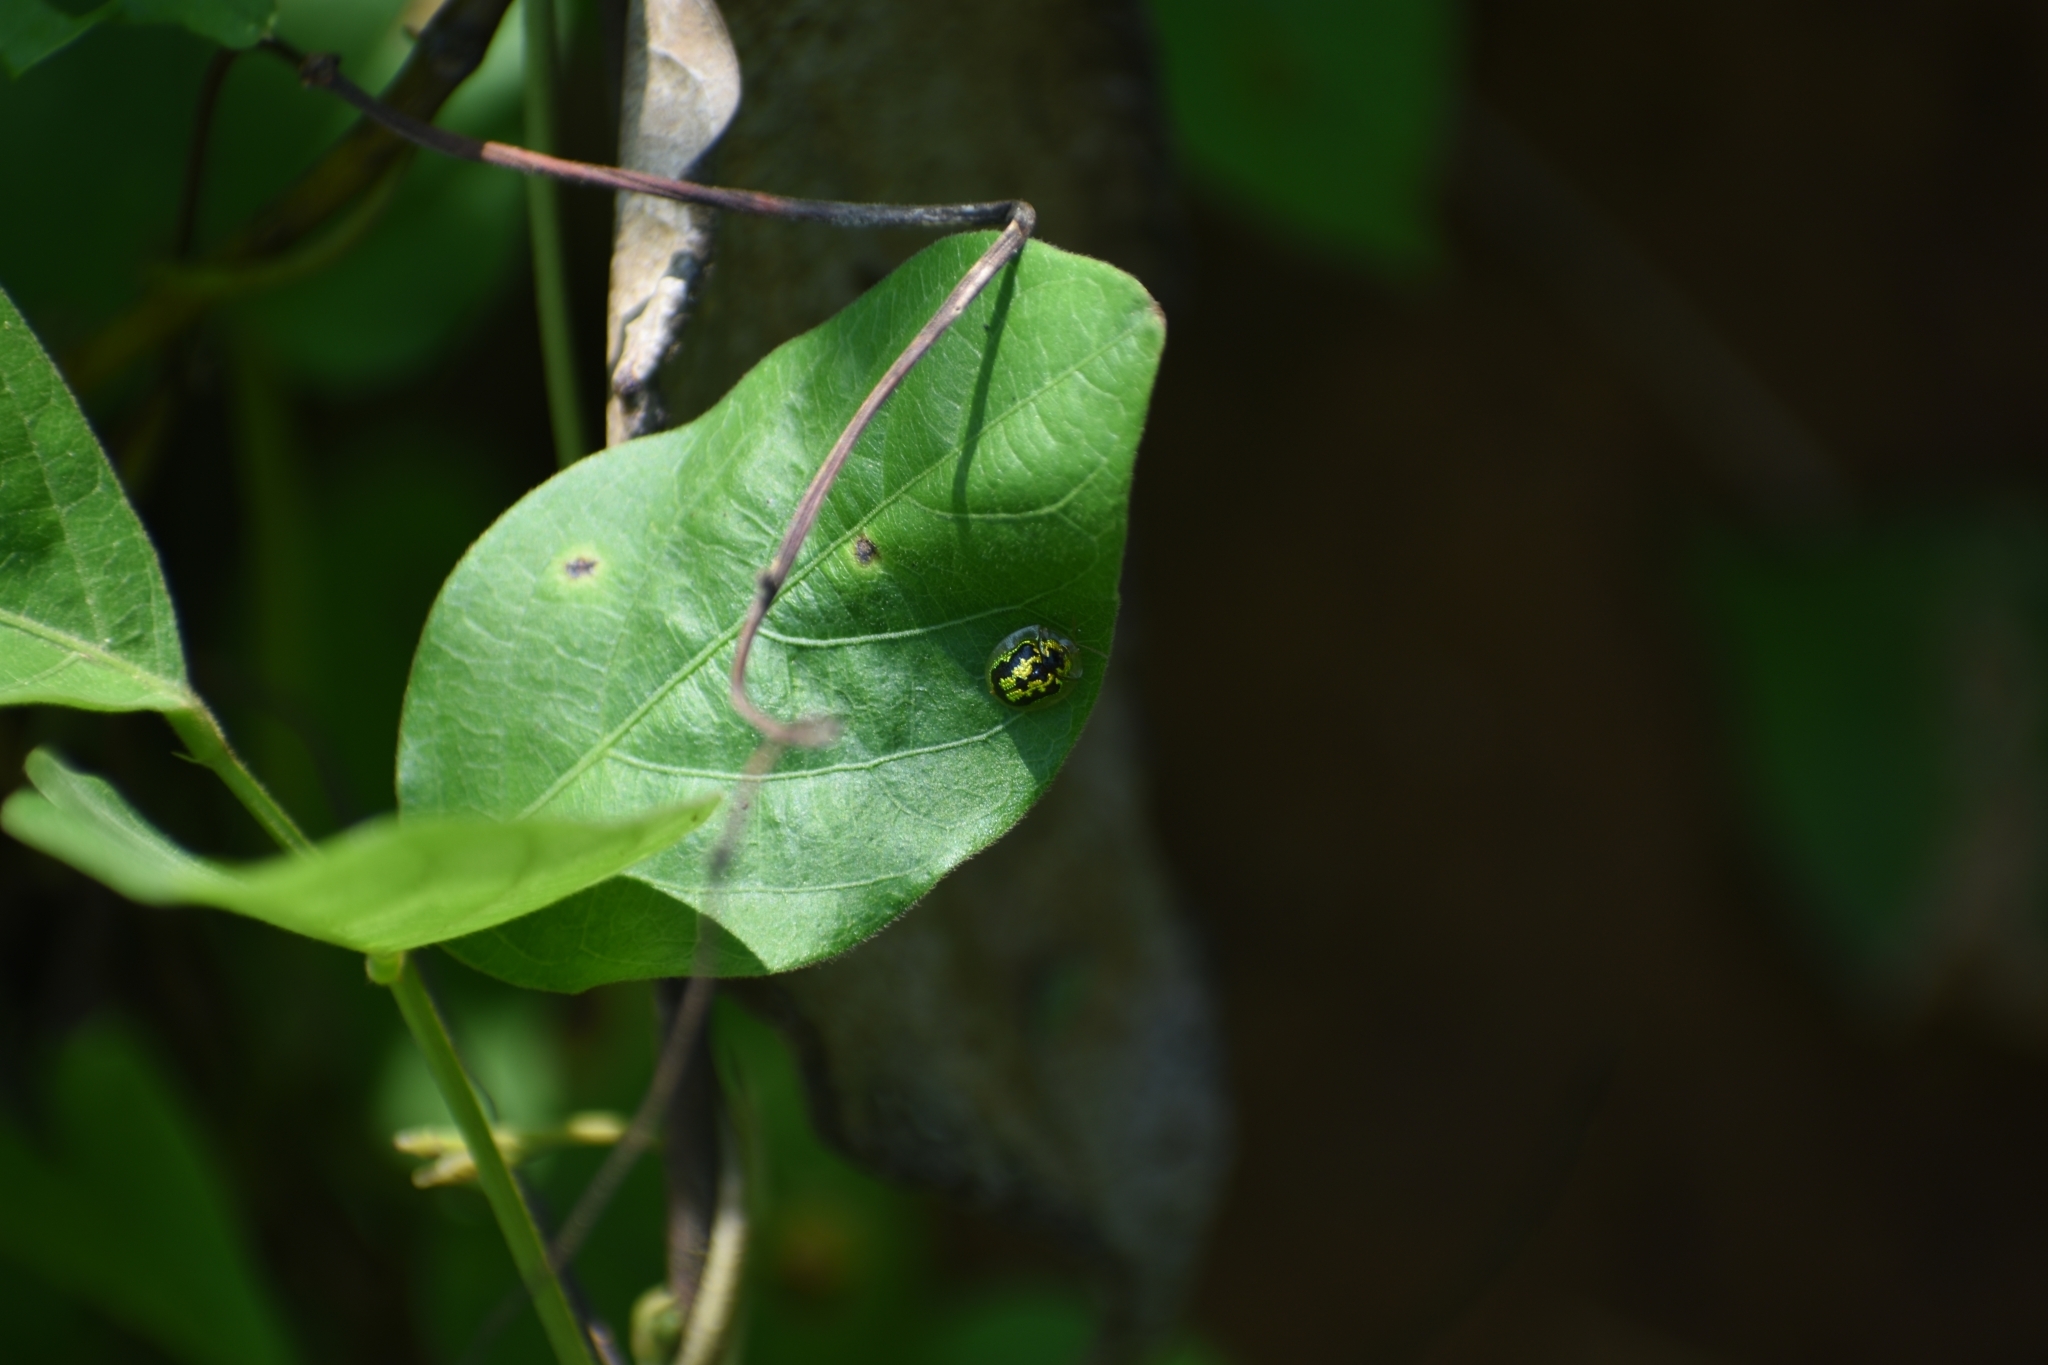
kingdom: Animalia
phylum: Arthropoda
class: Insecta
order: Coleoptera
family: Chrysomelidae
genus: Cassida
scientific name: Cassida circumdata
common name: Tortoise beetle
